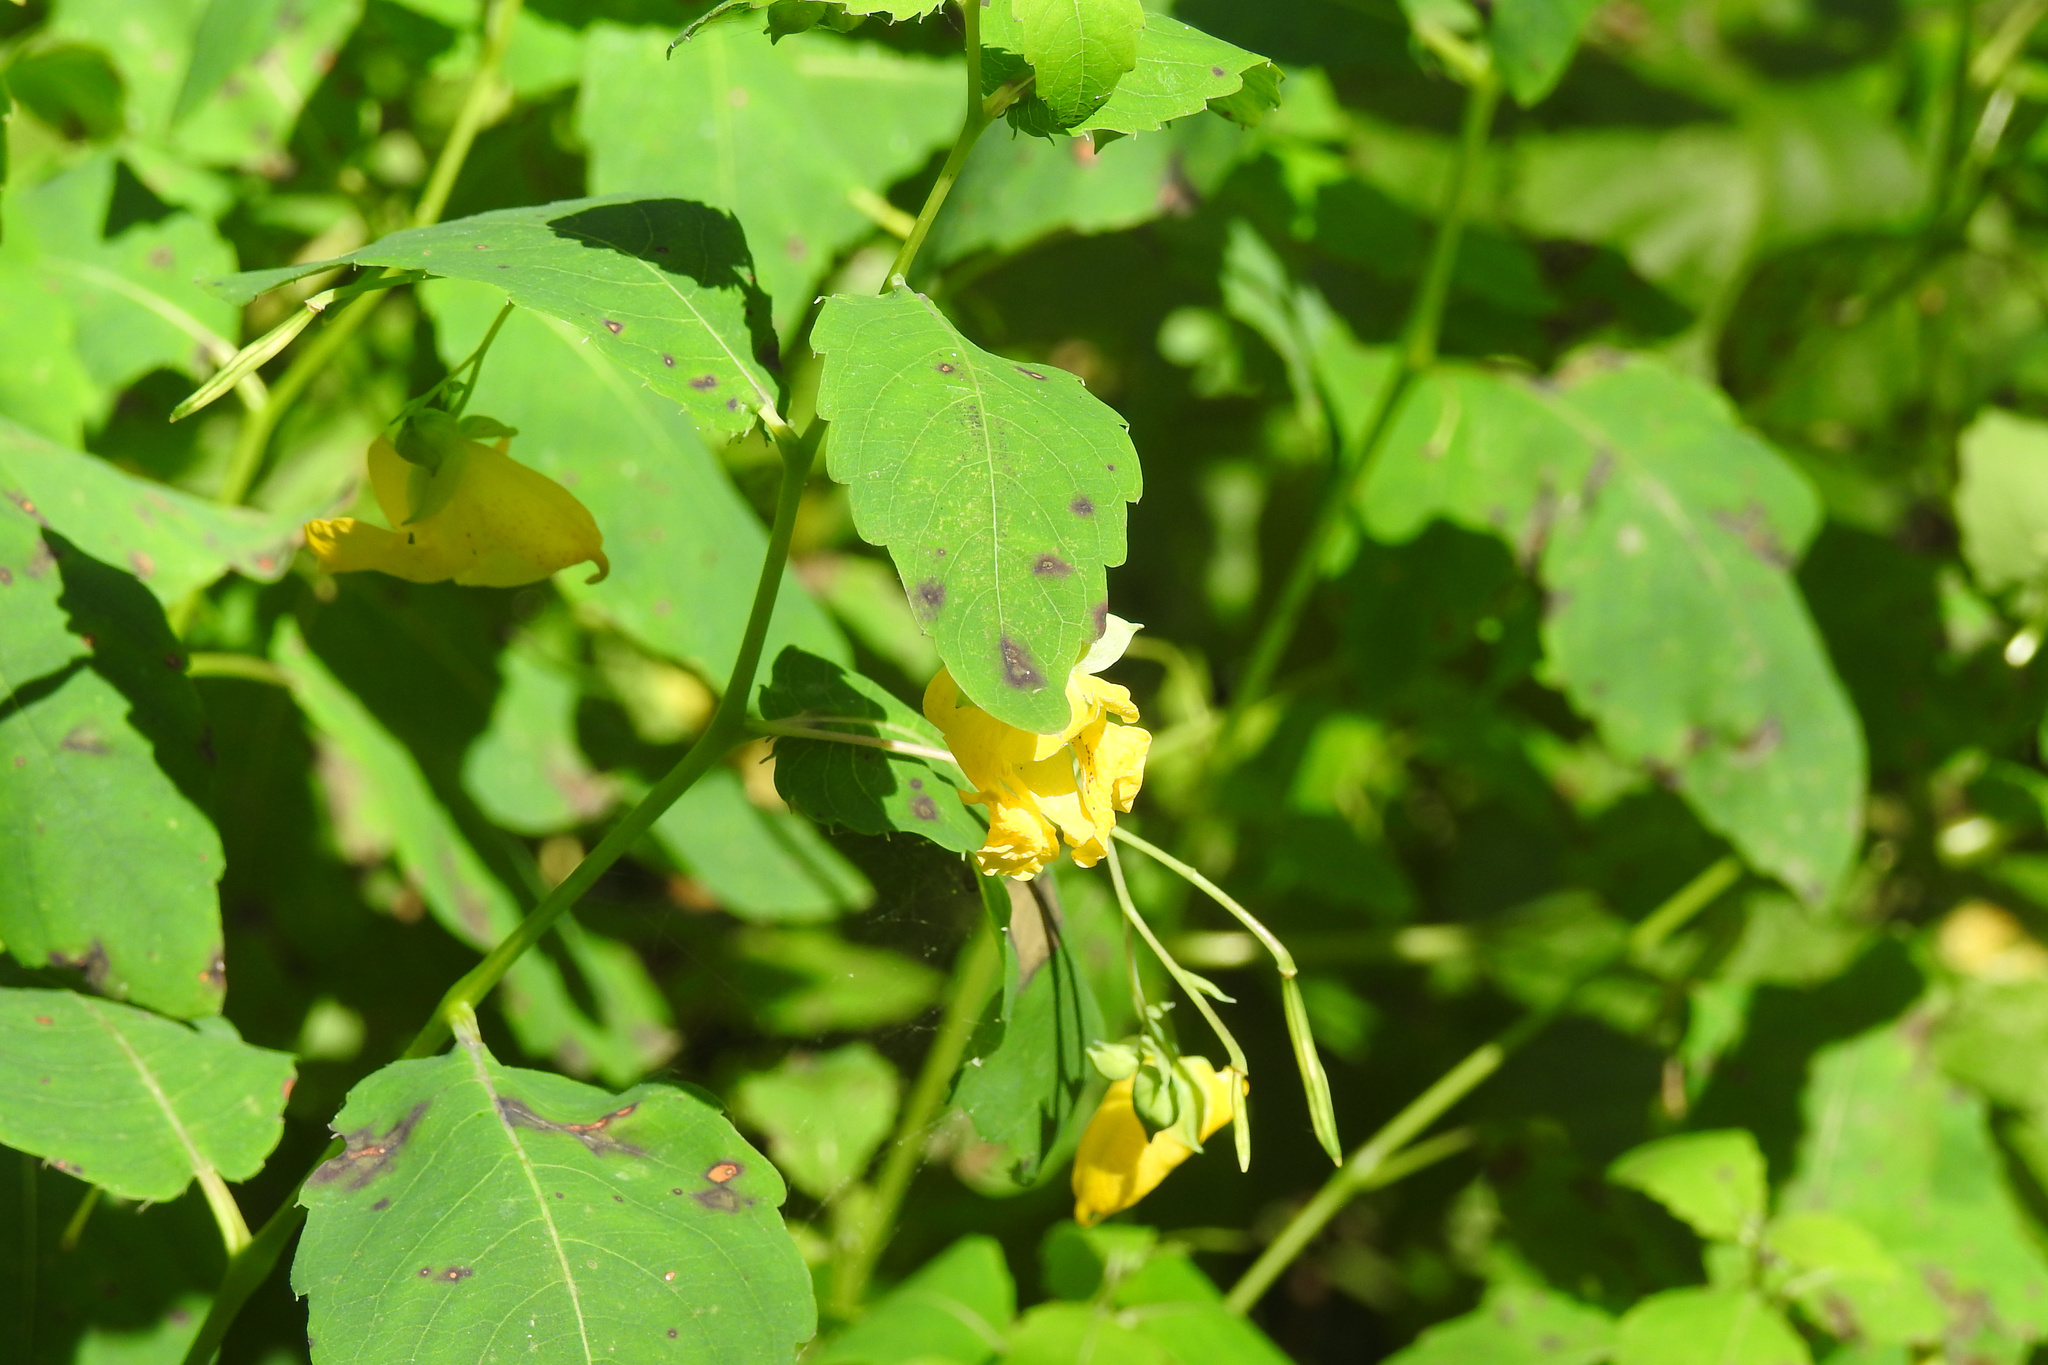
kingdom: Plantae
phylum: Tracheophyta
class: Magnoliopsida
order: Ericales
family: Balsaminaceae
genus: Impatiens
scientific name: Impatiens pallida
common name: Pale snapweed
